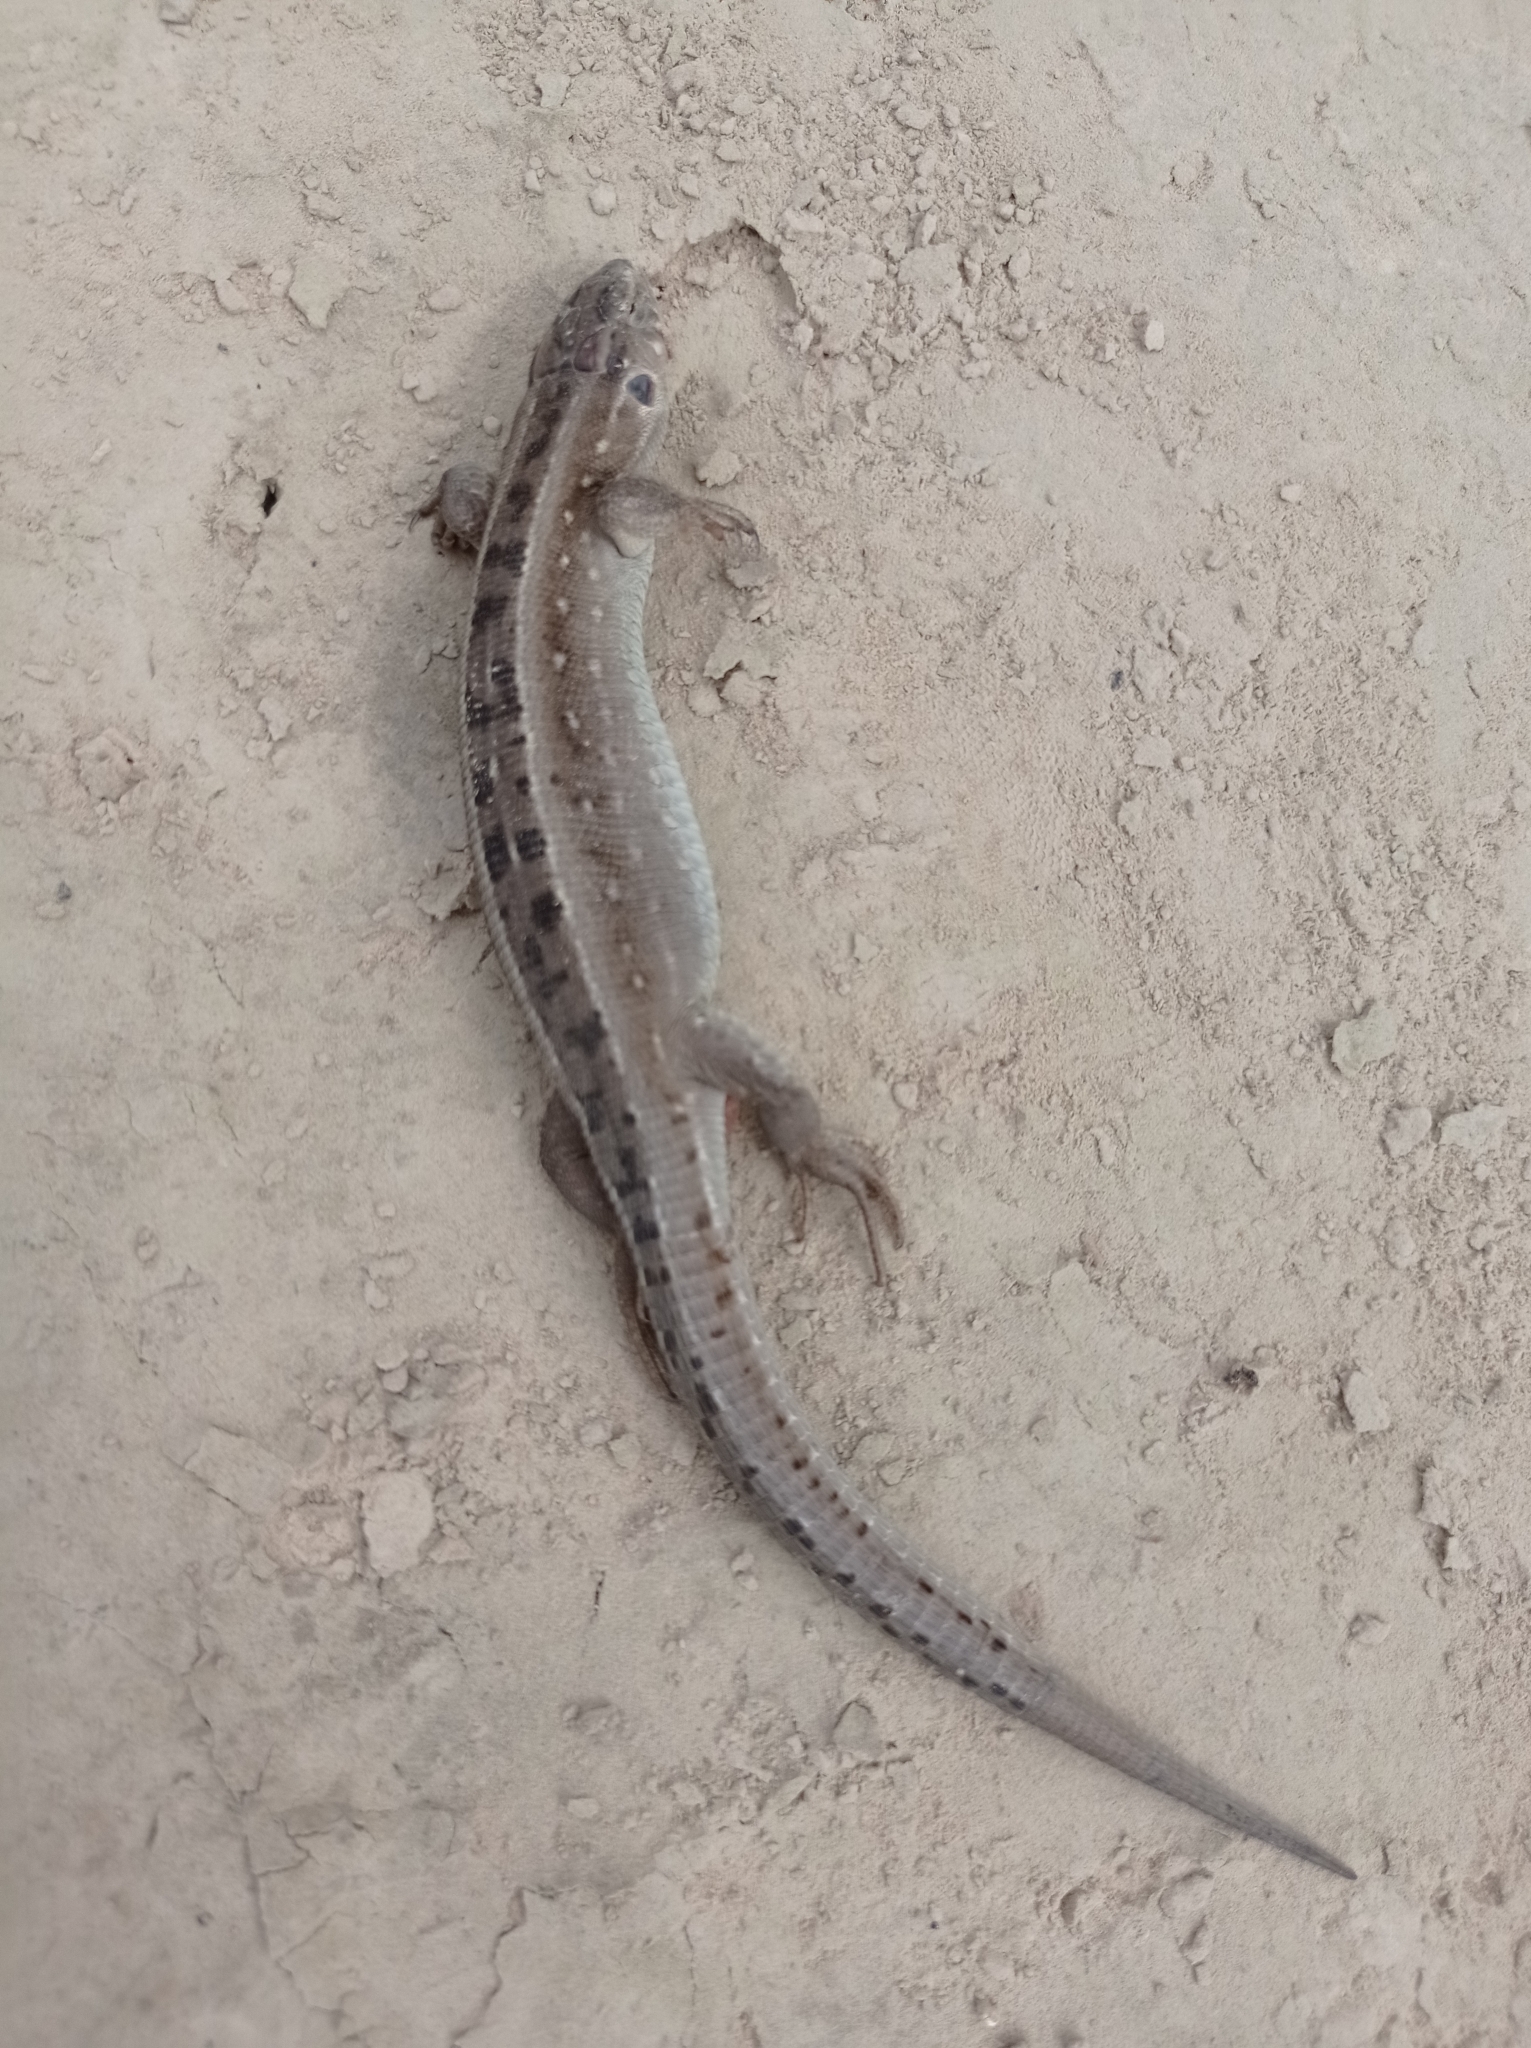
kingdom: Animalia
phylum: Chordata
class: Squamata
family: Lacertidae
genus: Lacerta
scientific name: Lacerta agilis
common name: Sand lizard
